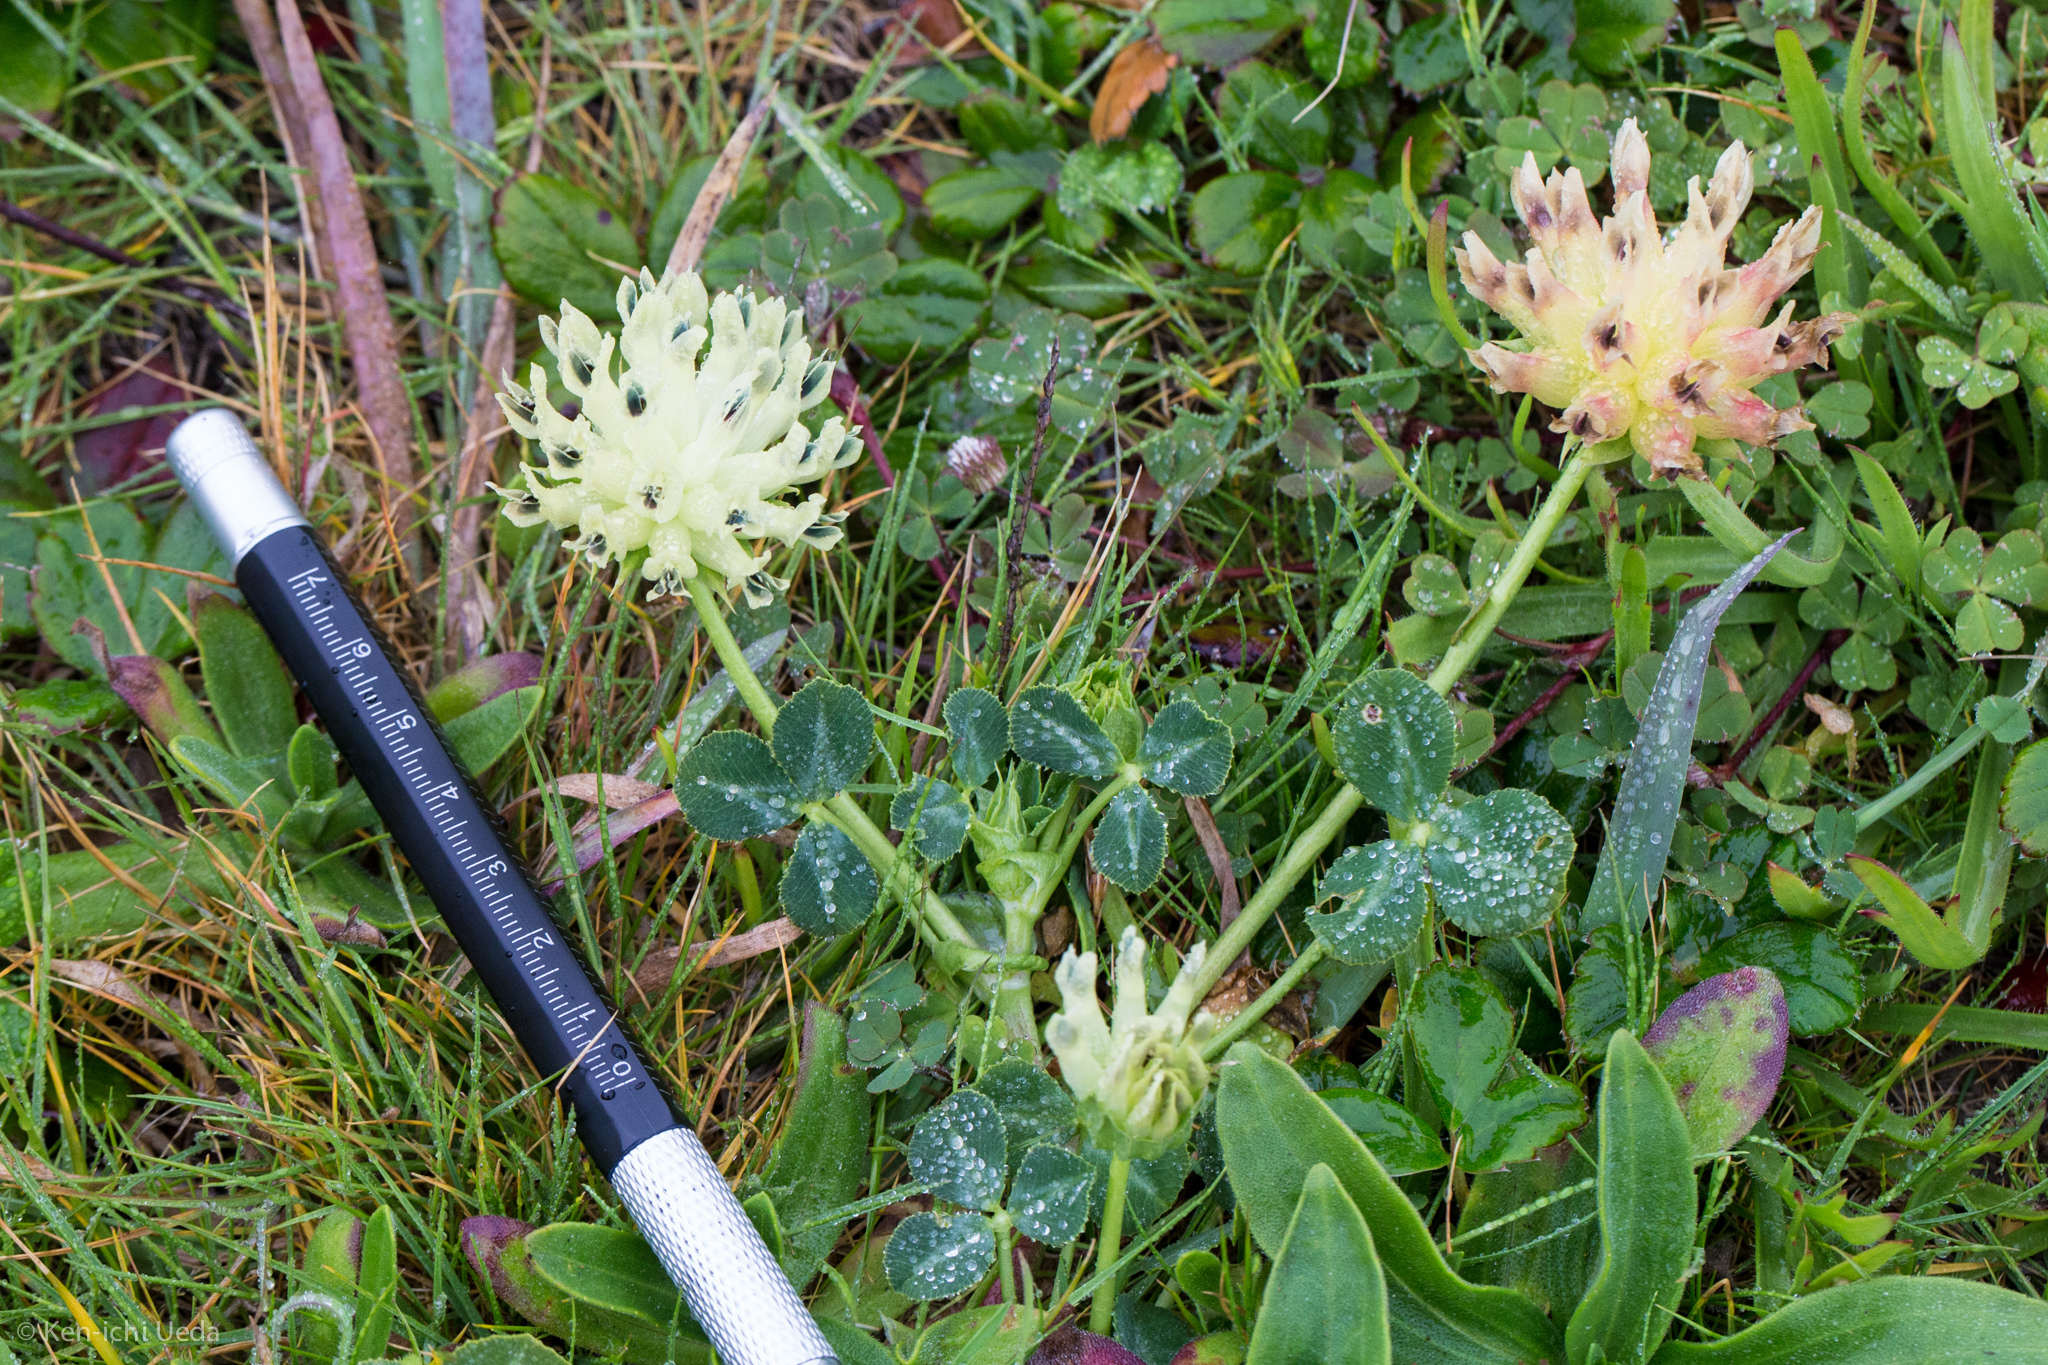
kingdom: Plantae
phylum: Tracheophyta
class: Magnoliopsida
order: Fabales
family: Fabaceae
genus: Trifolium
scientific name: Trifolium fucatum
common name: Puff clover
